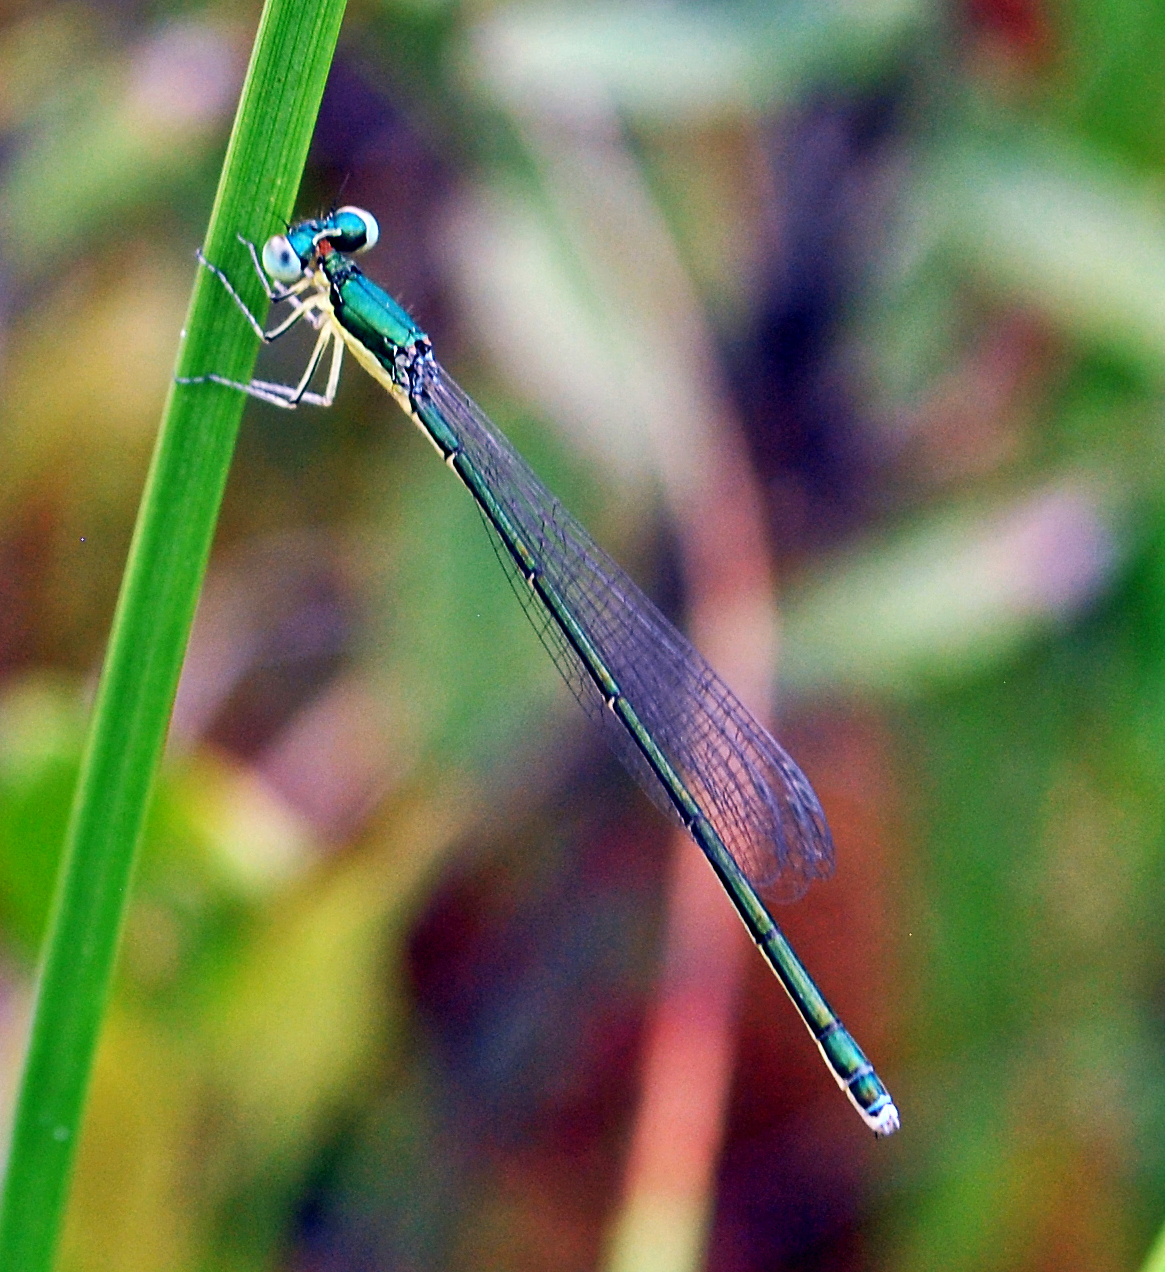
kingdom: Animalia
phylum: Arthropoda
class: Insecta
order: Odonata
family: Coenagrionidae
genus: Nehalennia
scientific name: Nehalennia irene
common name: Sedge sprite
